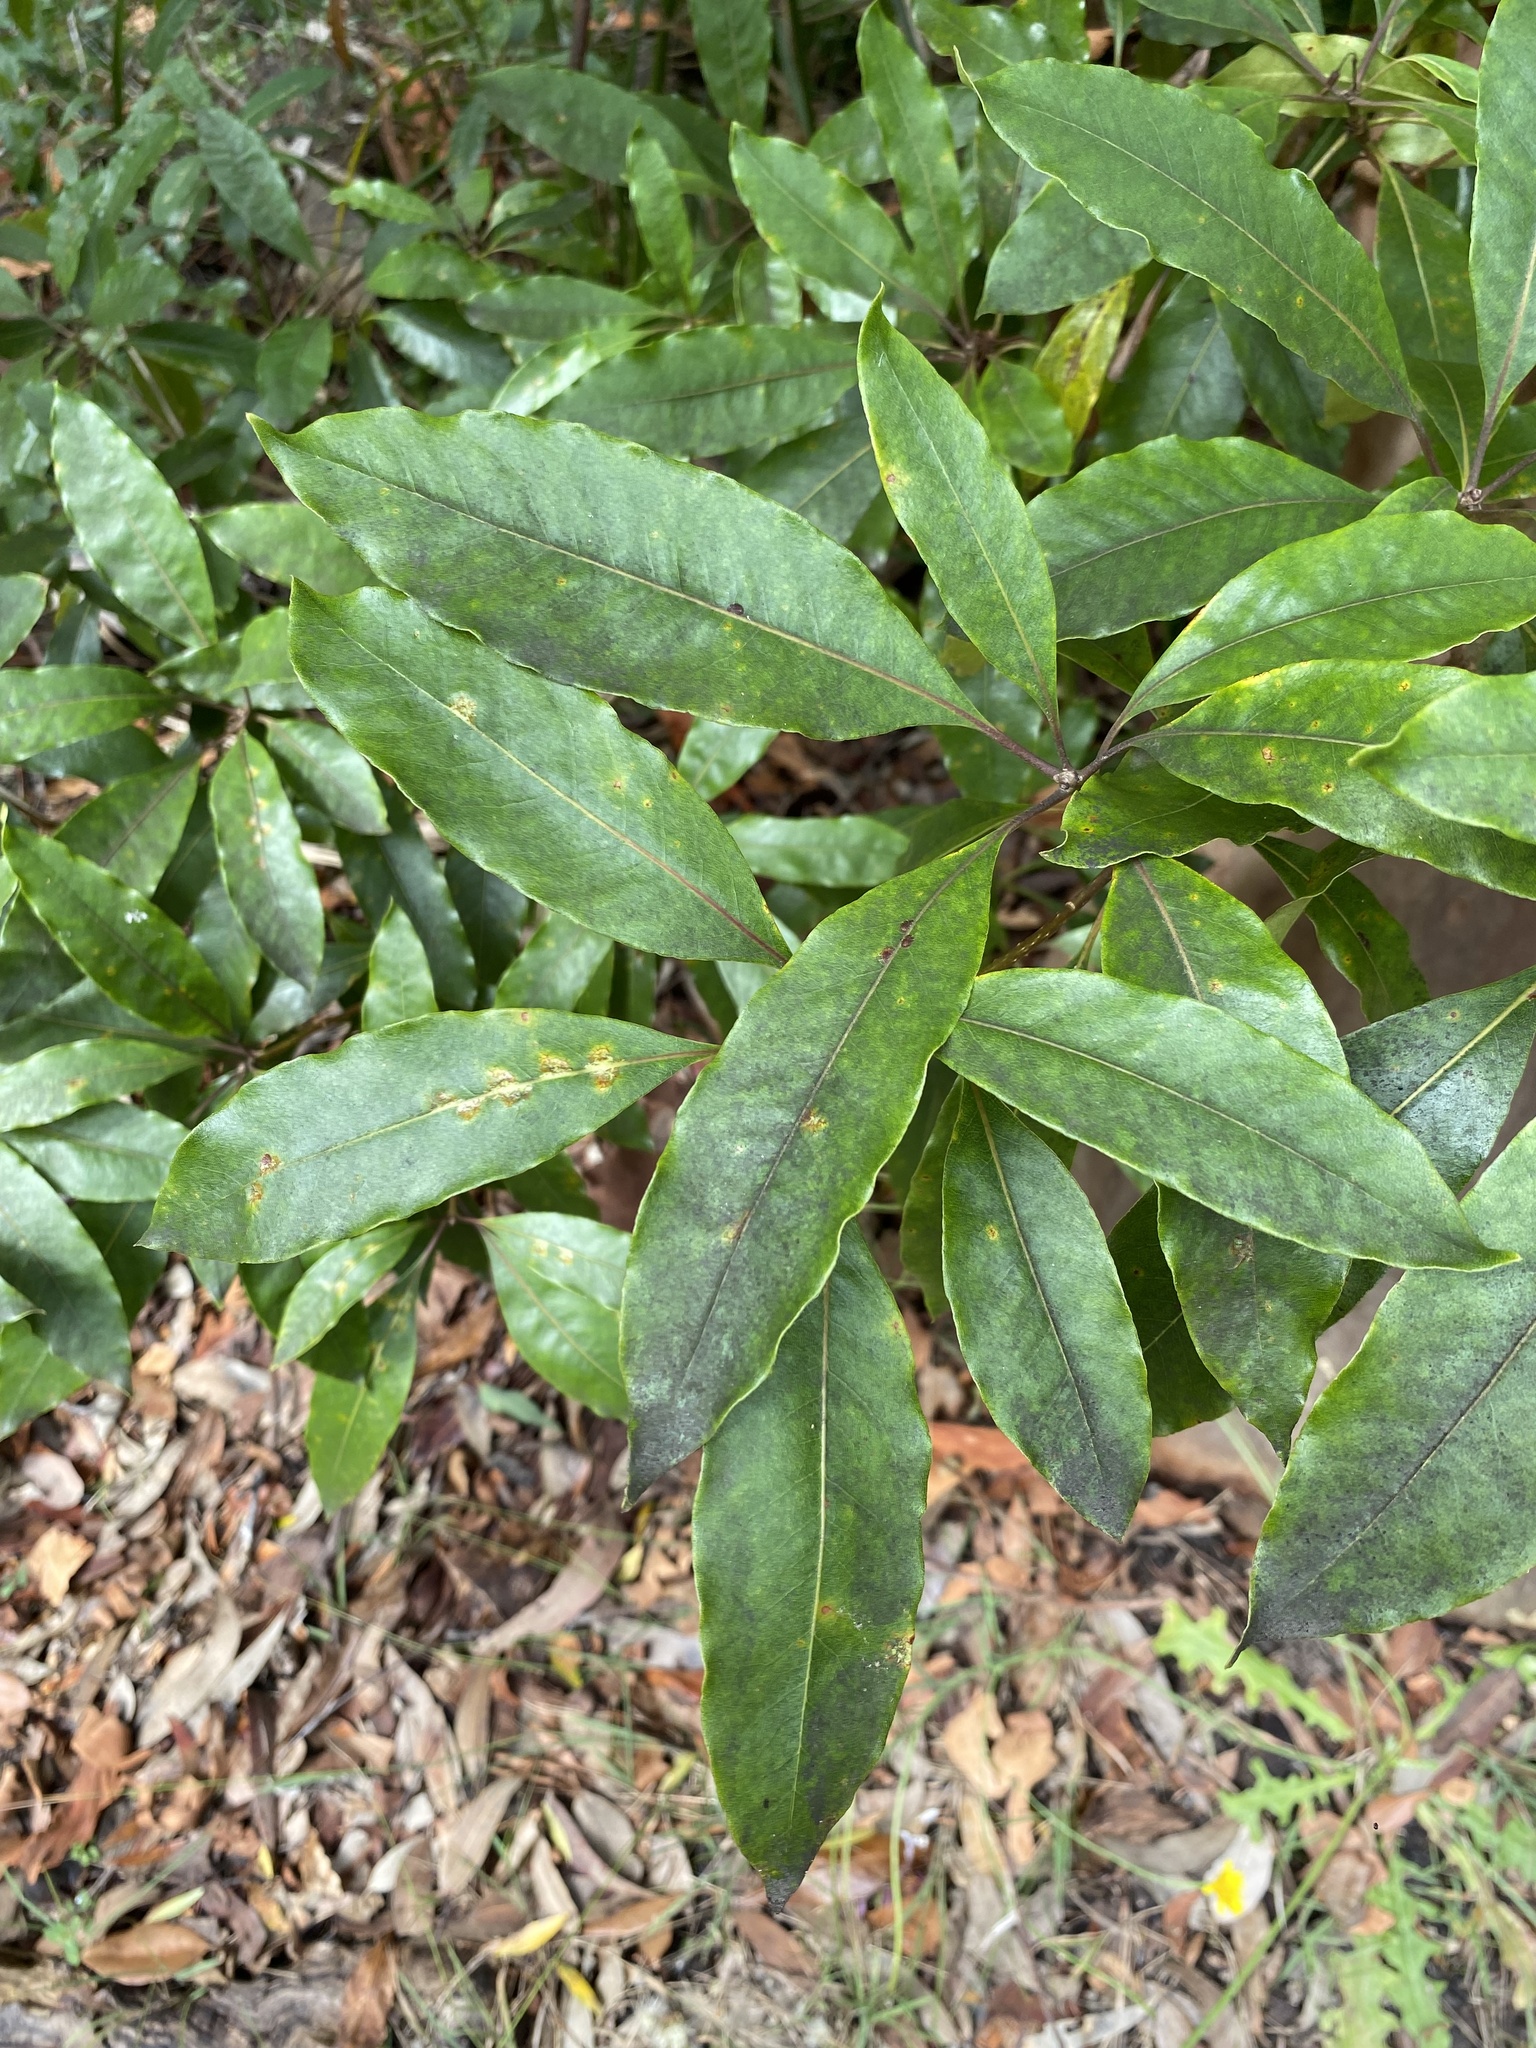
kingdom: Plantae
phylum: Tracheophyta
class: Magnoliopsida
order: Apiales
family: Pittosporaceae
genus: Pittosporum
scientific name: Pittosporum undulatum
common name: Australian cheesewood
